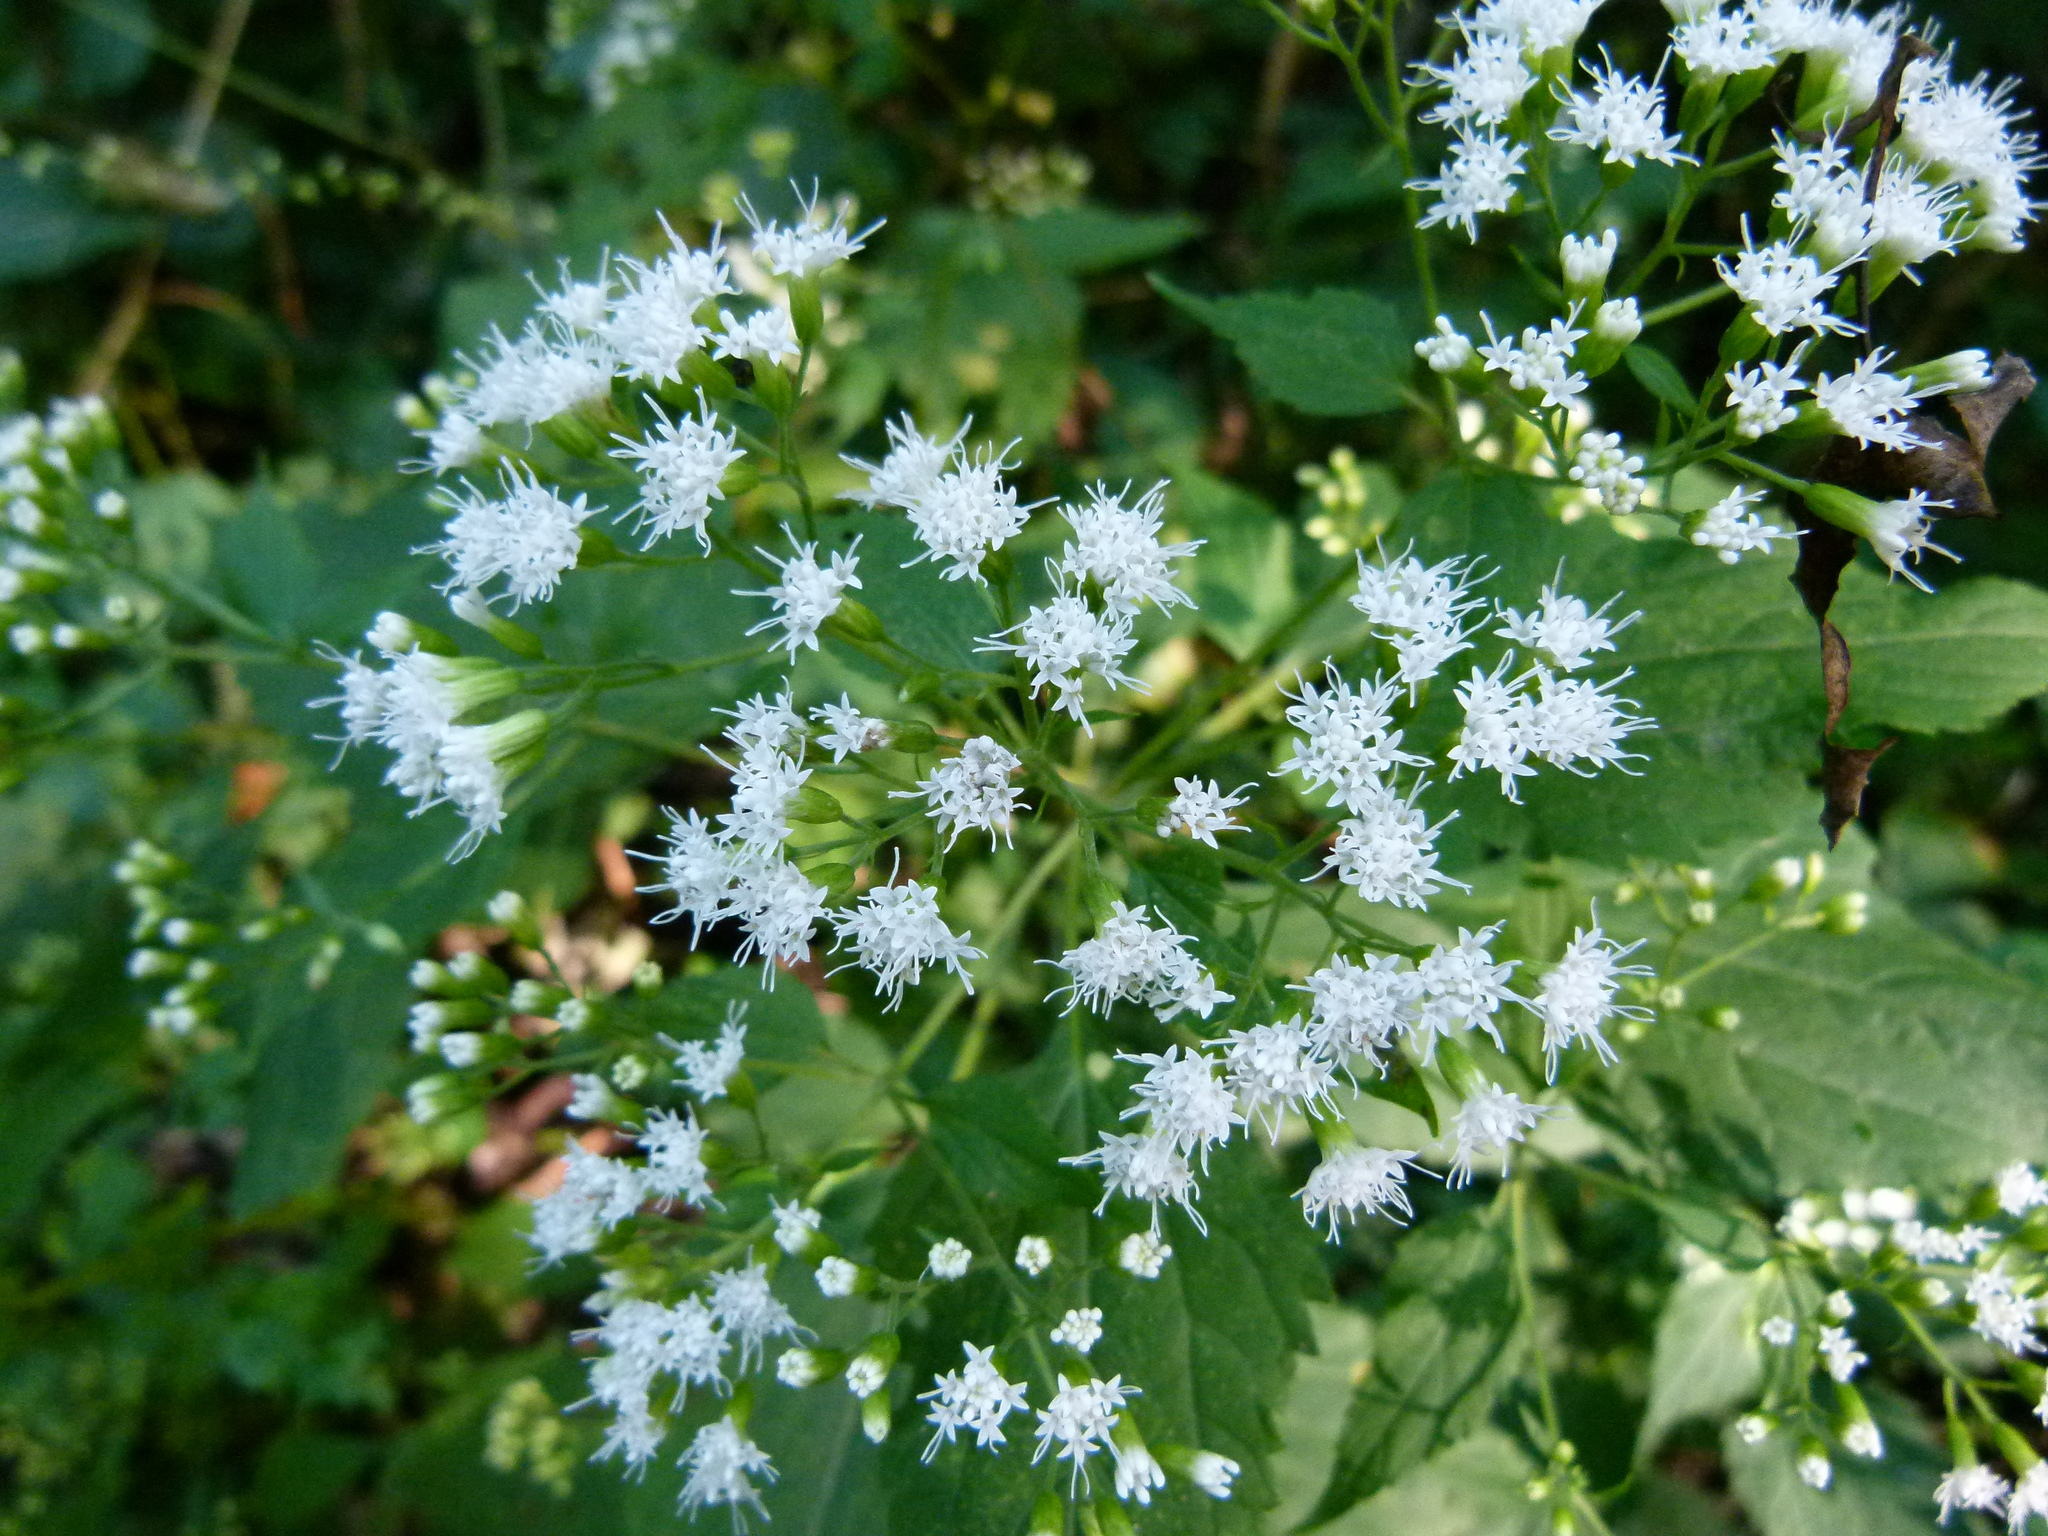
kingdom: Plantae
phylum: Tracheophyta
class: Magnoliopsida
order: Asterales
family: Asteraceae
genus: Ageratina
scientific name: Ageratina altissima
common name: White snakeroot
